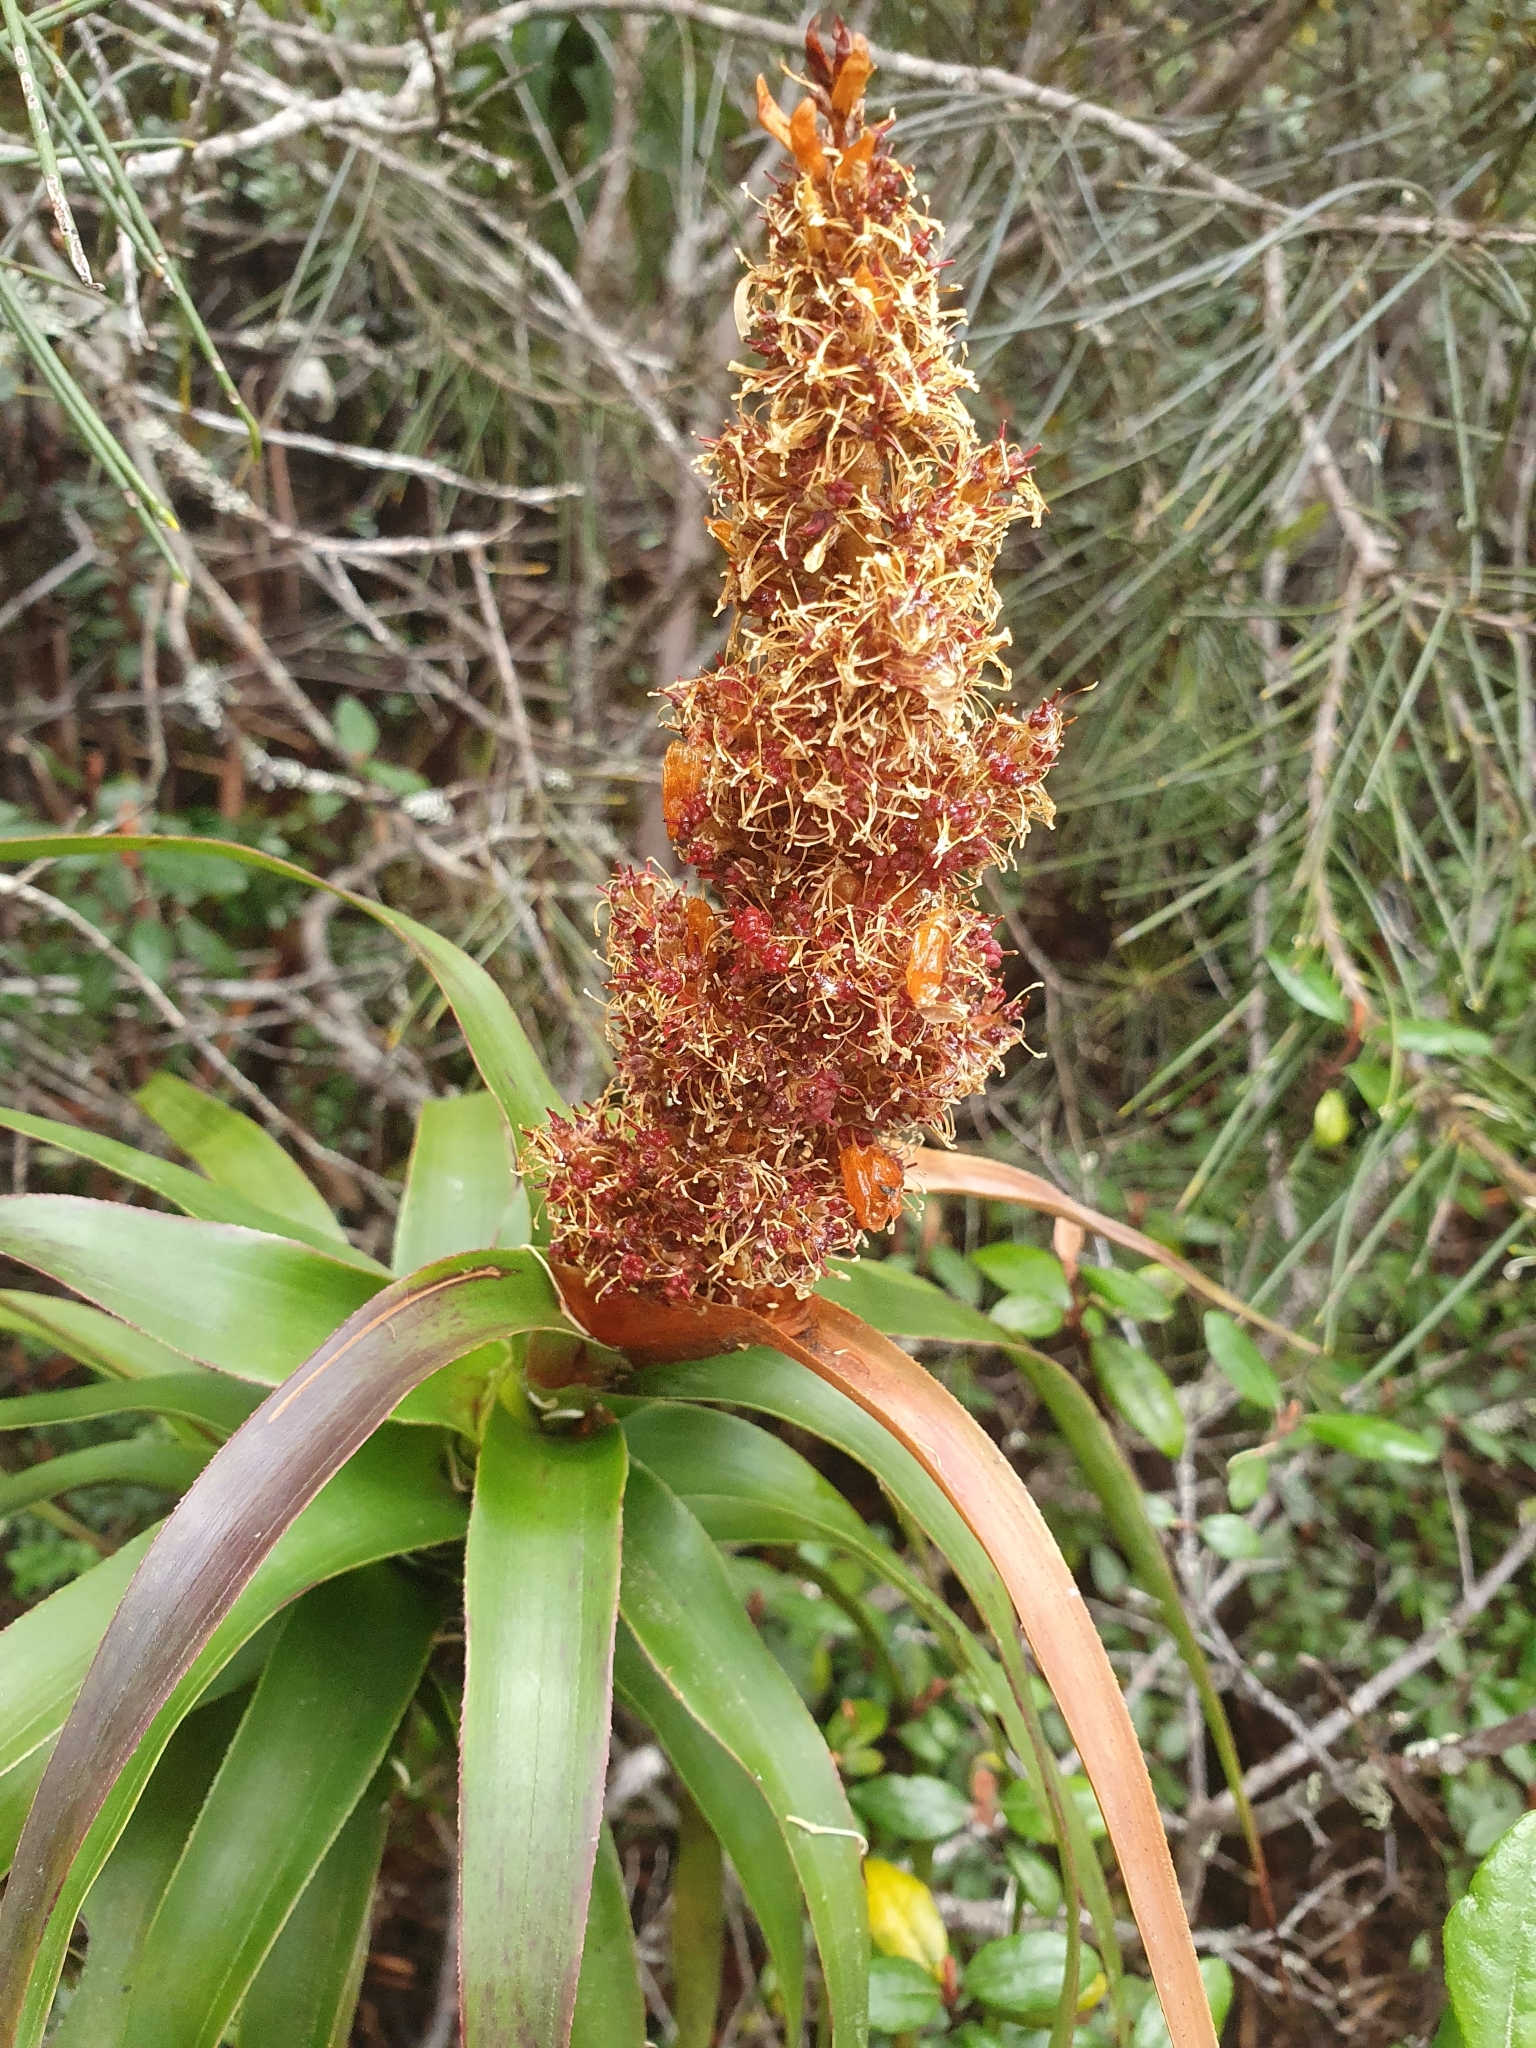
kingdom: Plantae
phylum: Tracheophyta
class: Magnoliopsida
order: Ericales
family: Ericaceae
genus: Dracophyllum
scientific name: Dracophyllum desgrazii
